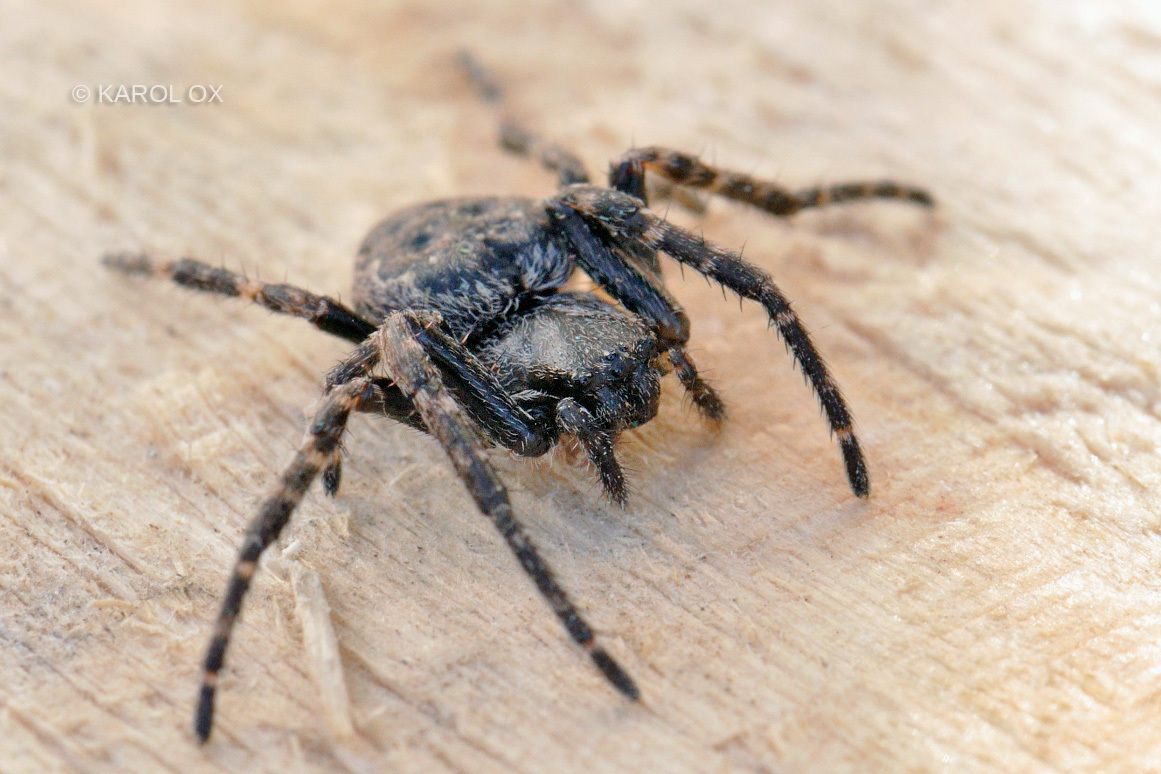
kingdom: Animalia
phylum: Arthropoda
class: Arachnida
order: Araneae
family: Araneidae
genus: Nuctenea
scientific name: Nuctenea umbratica
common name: Toad spider
